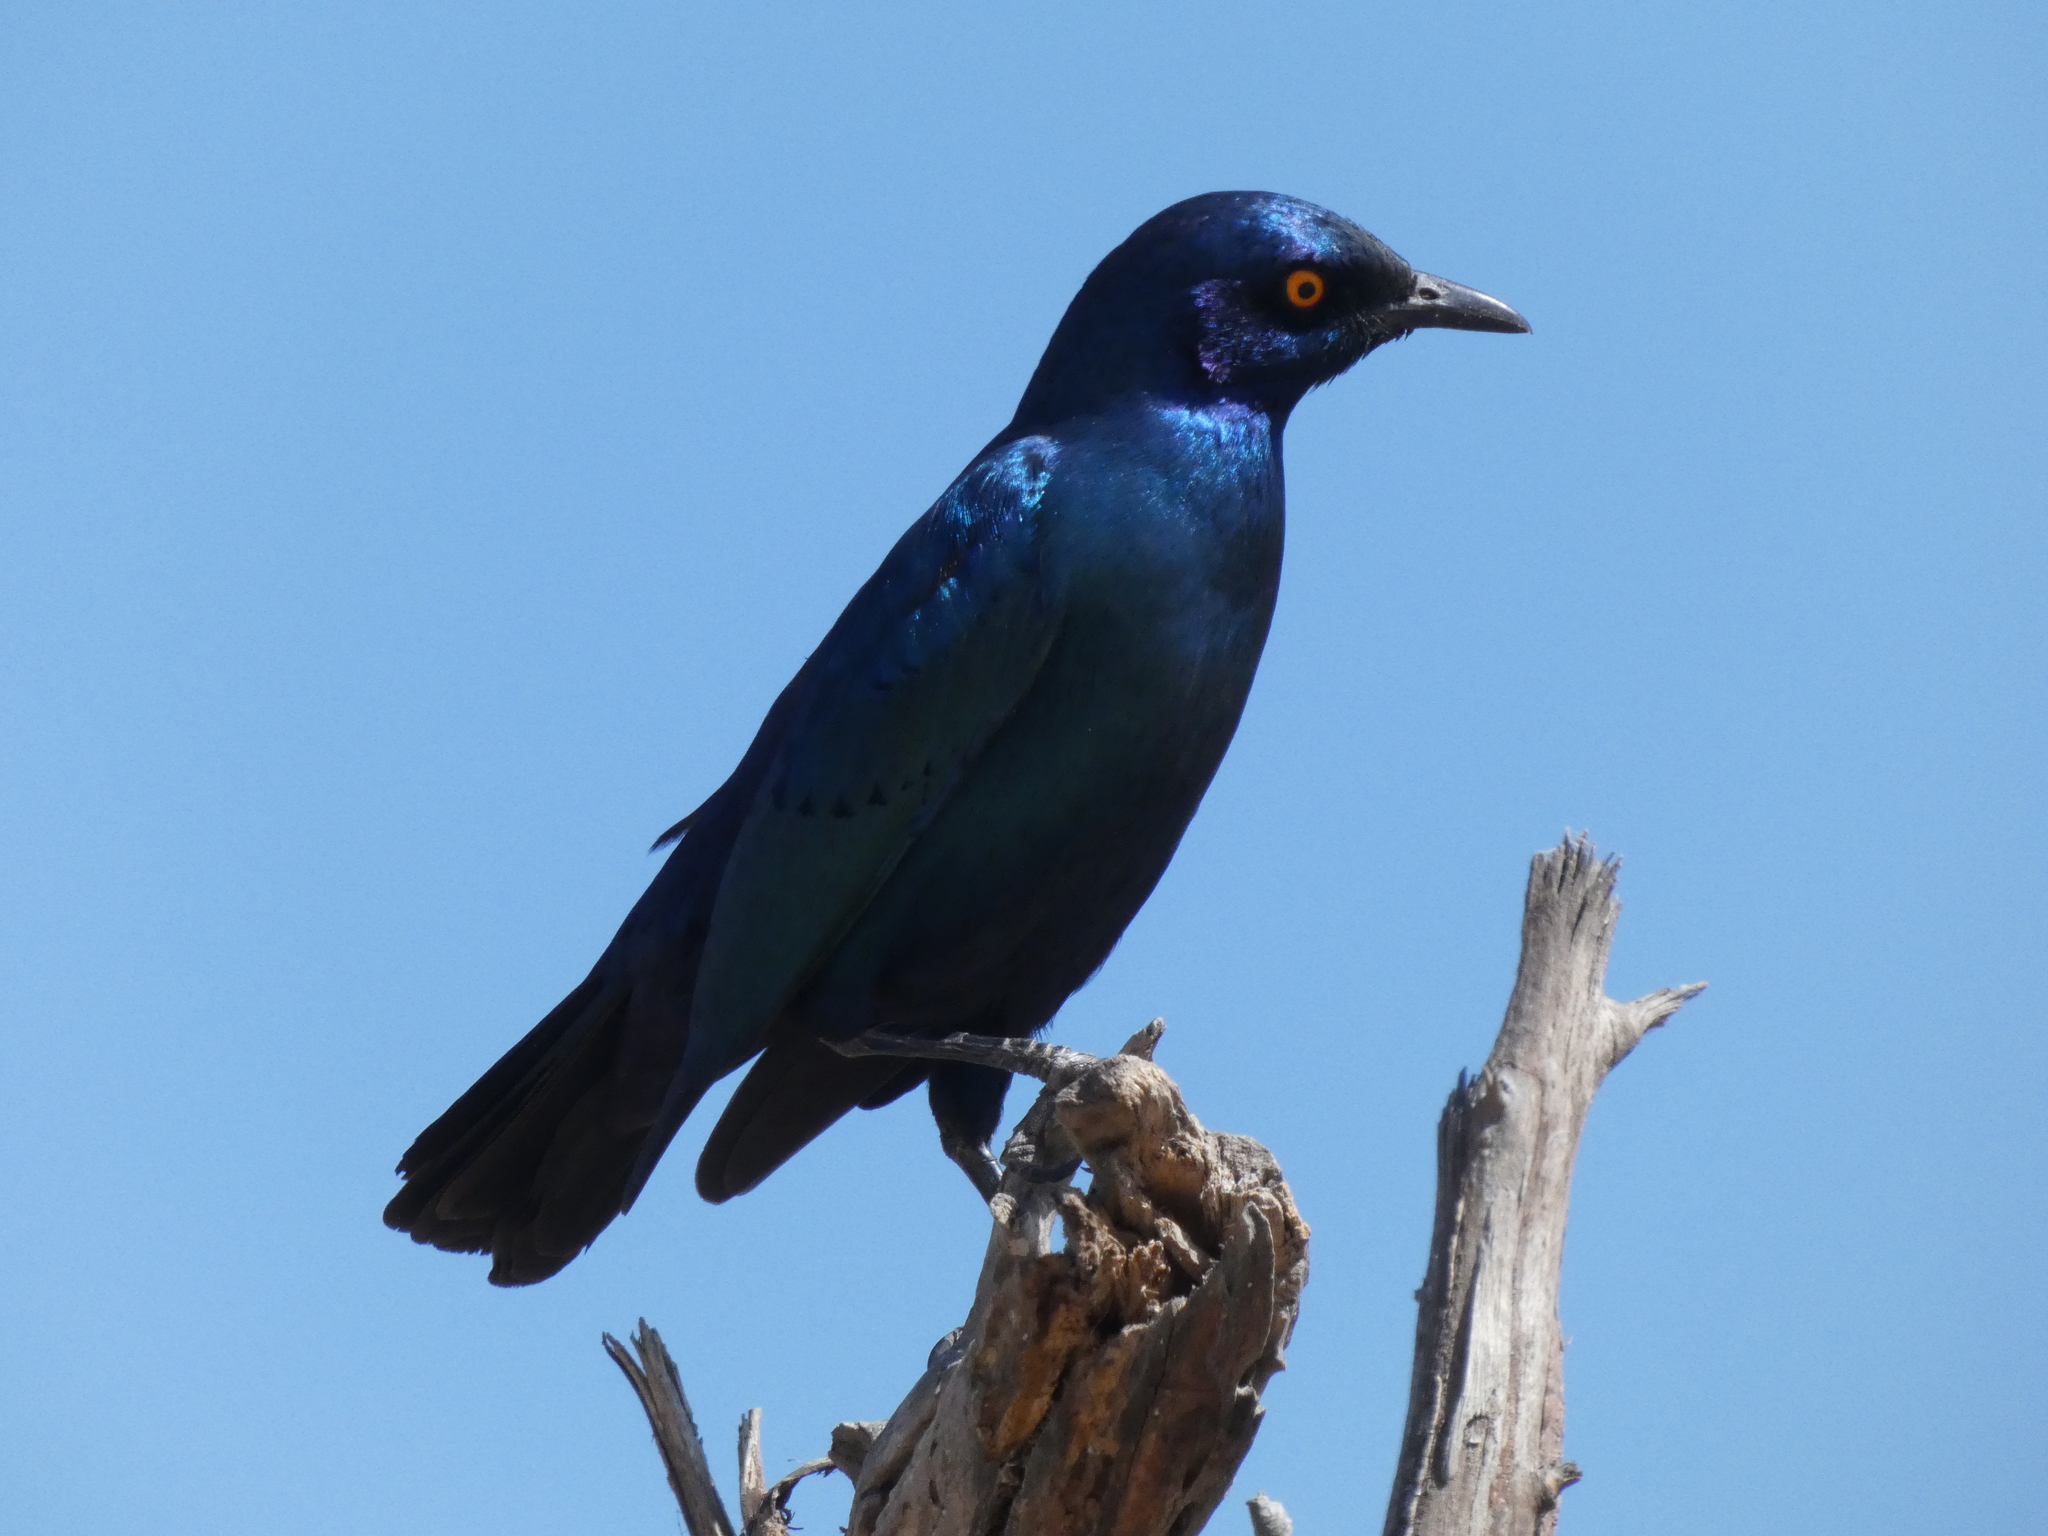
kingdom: Animalia
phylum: Chordata
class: Aves
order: Passeriformes
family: Sturnidae
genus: Lamprotornis
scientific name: Lamprotornis chalybaeus
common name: Greater blue-eared starling
